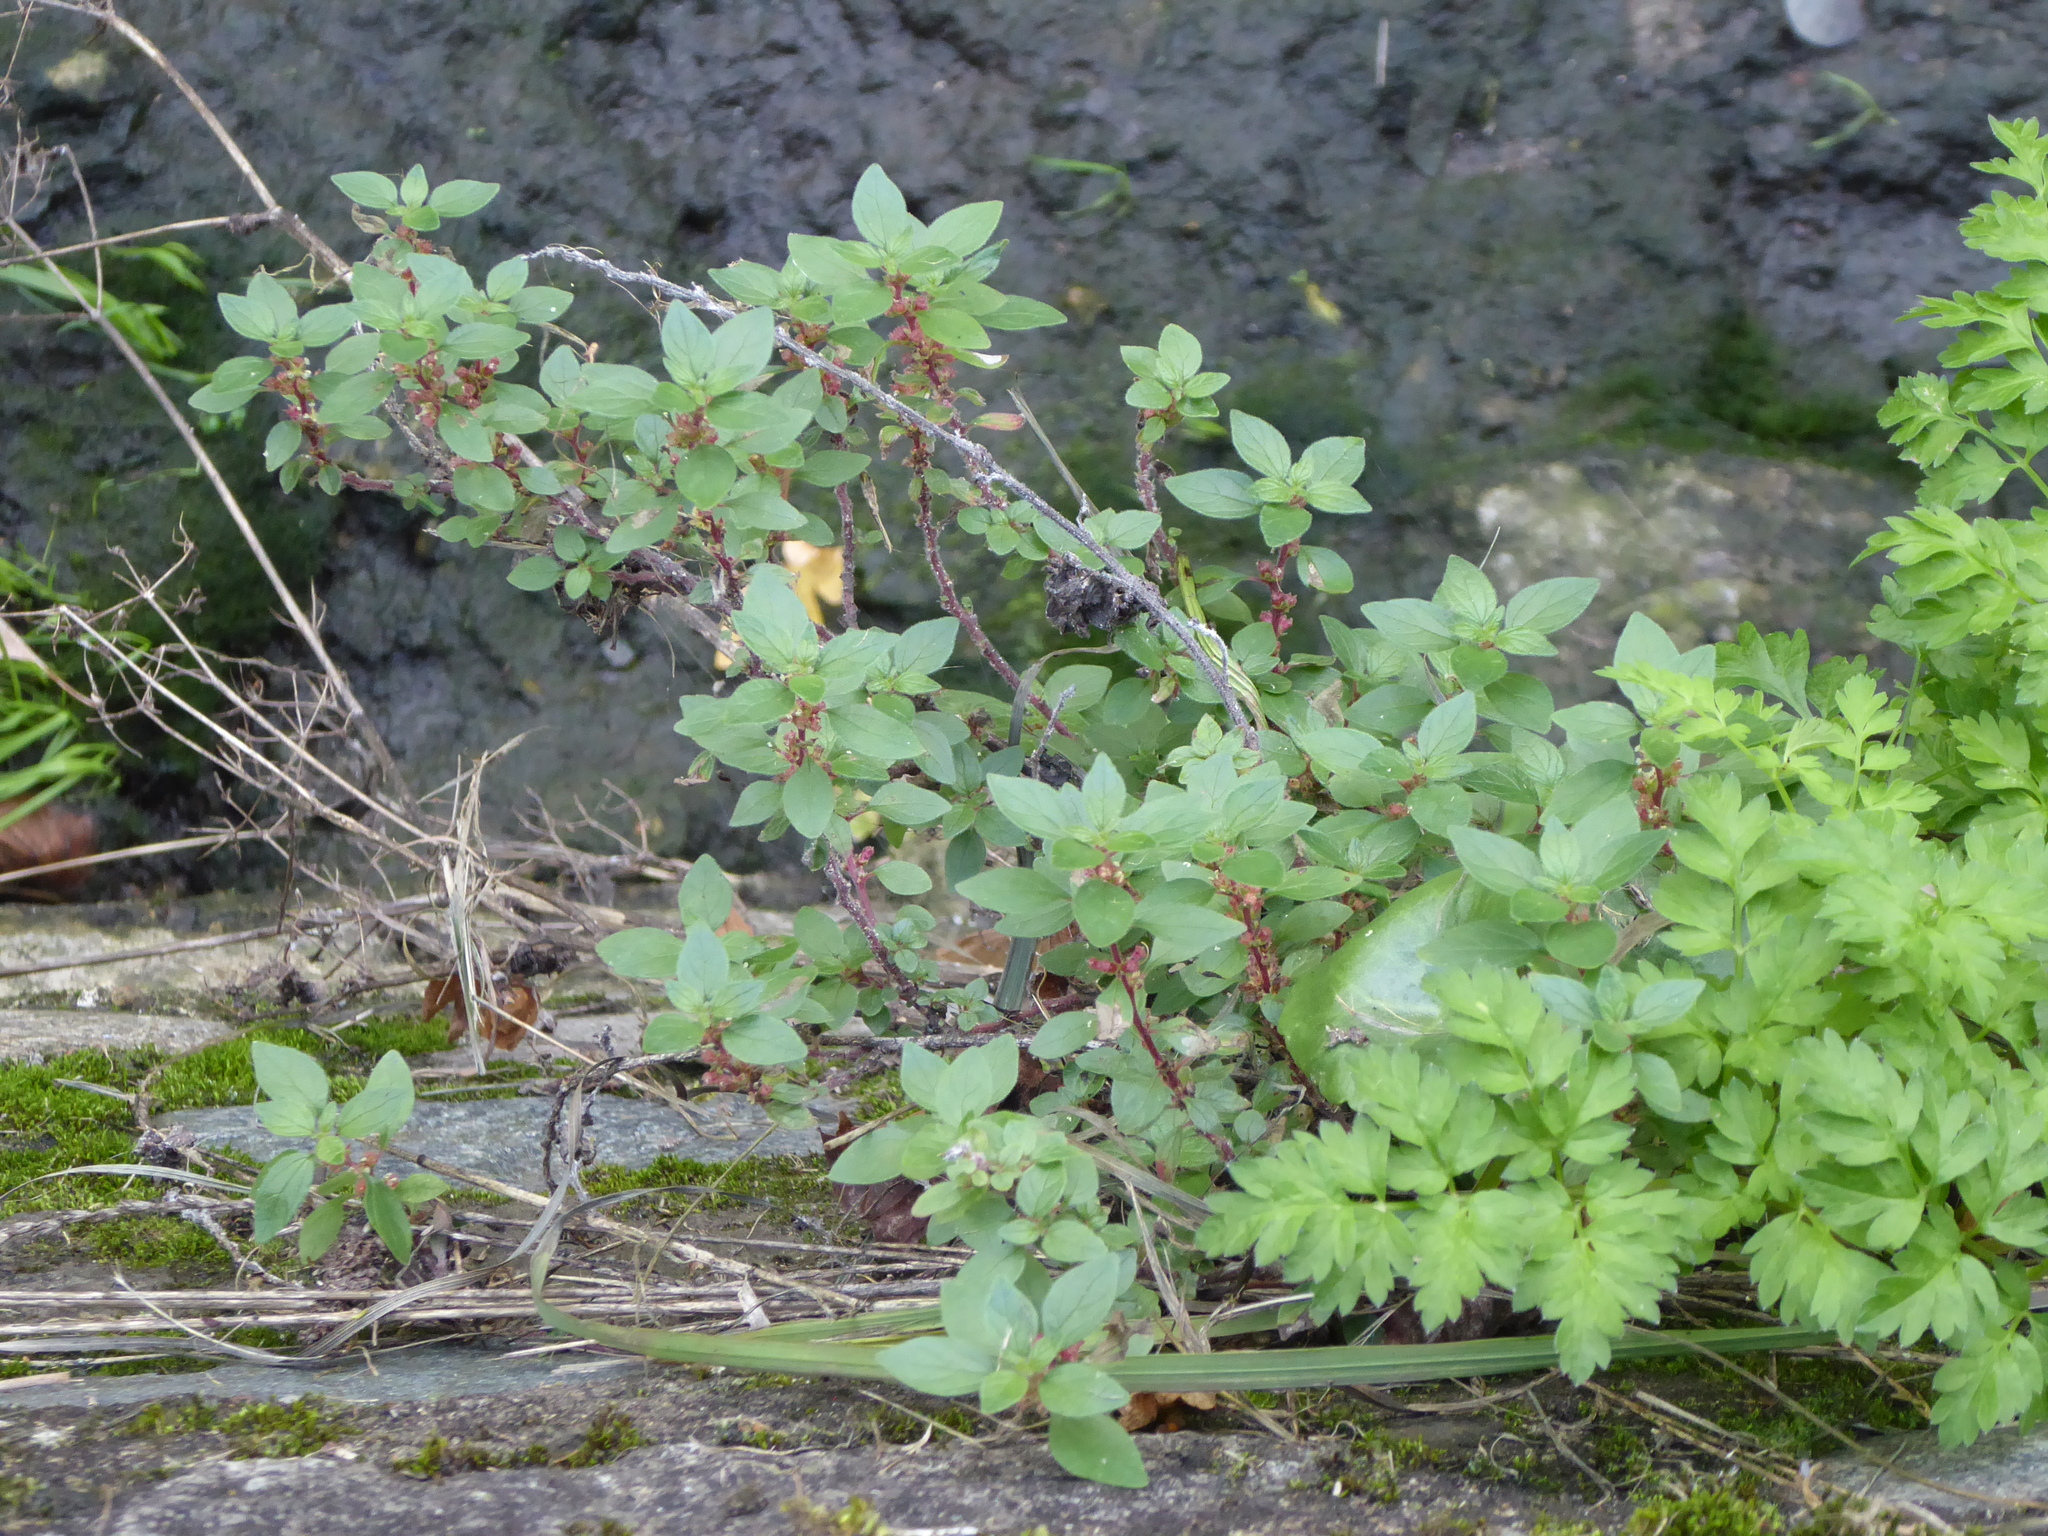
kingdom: Plantae
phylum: Tracheophyta
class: Magnoliopsida
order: Rosales
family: Urticaceae
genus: Parietaria
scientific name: Parietaria judaica
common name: Pellitory-of-the-wall
